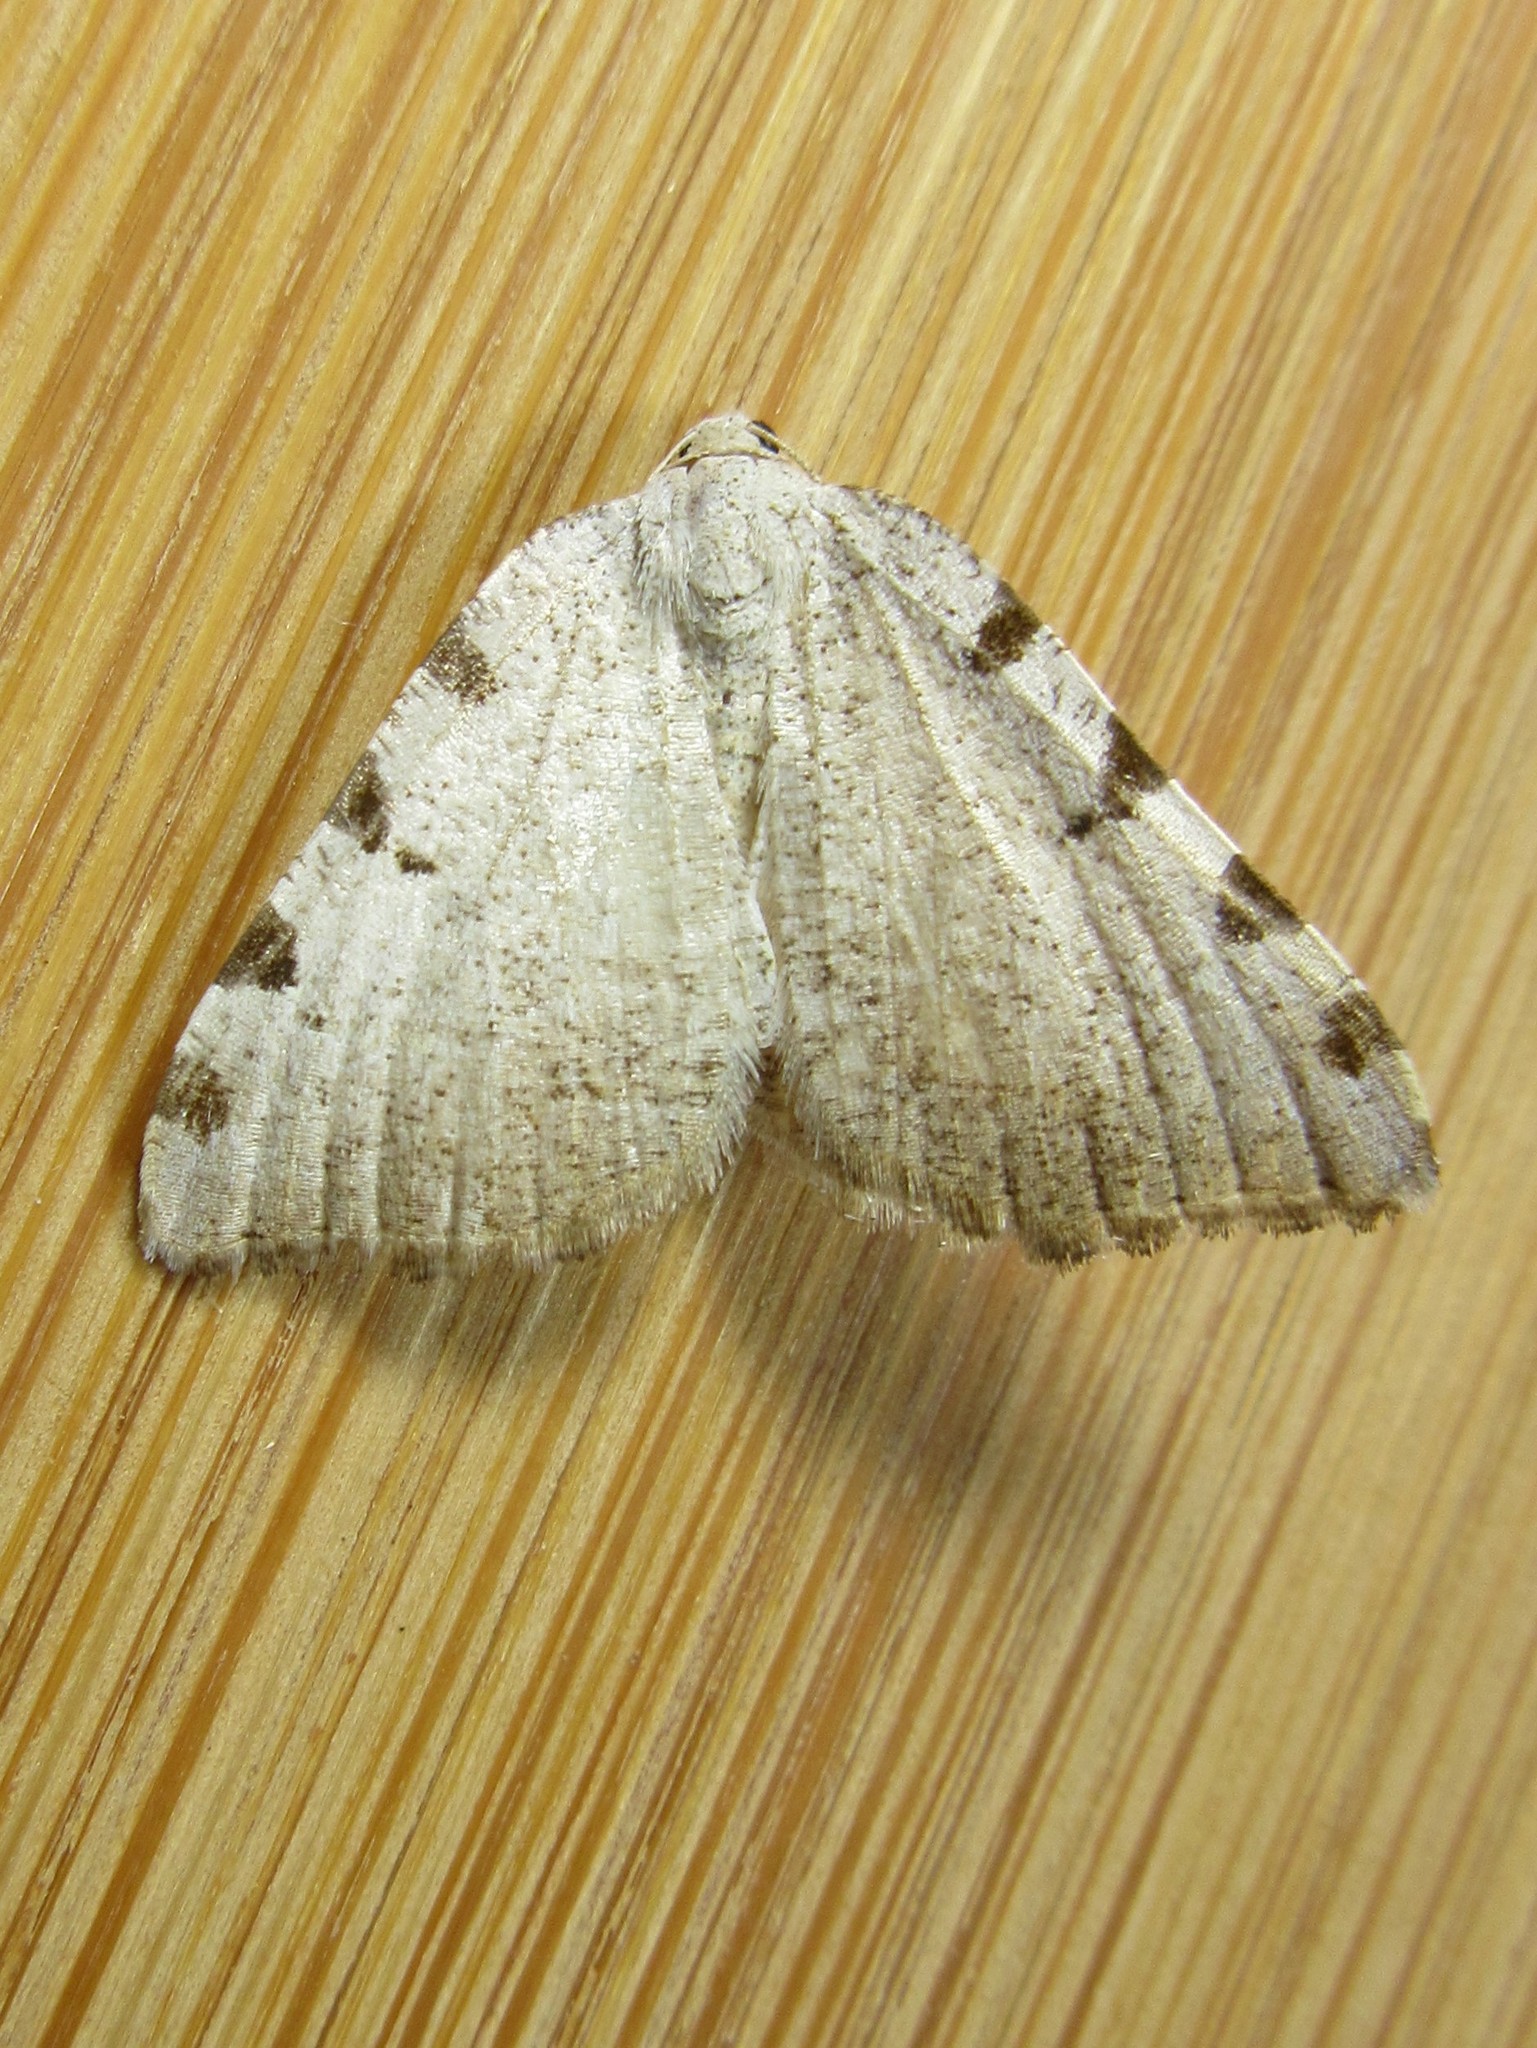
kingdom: Animalia
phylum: Arthropoda
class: Insecta
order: Lepidoptera
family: Geometridae
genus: Macaria
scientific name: Macaria coortaria
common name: Four-spotted granite
